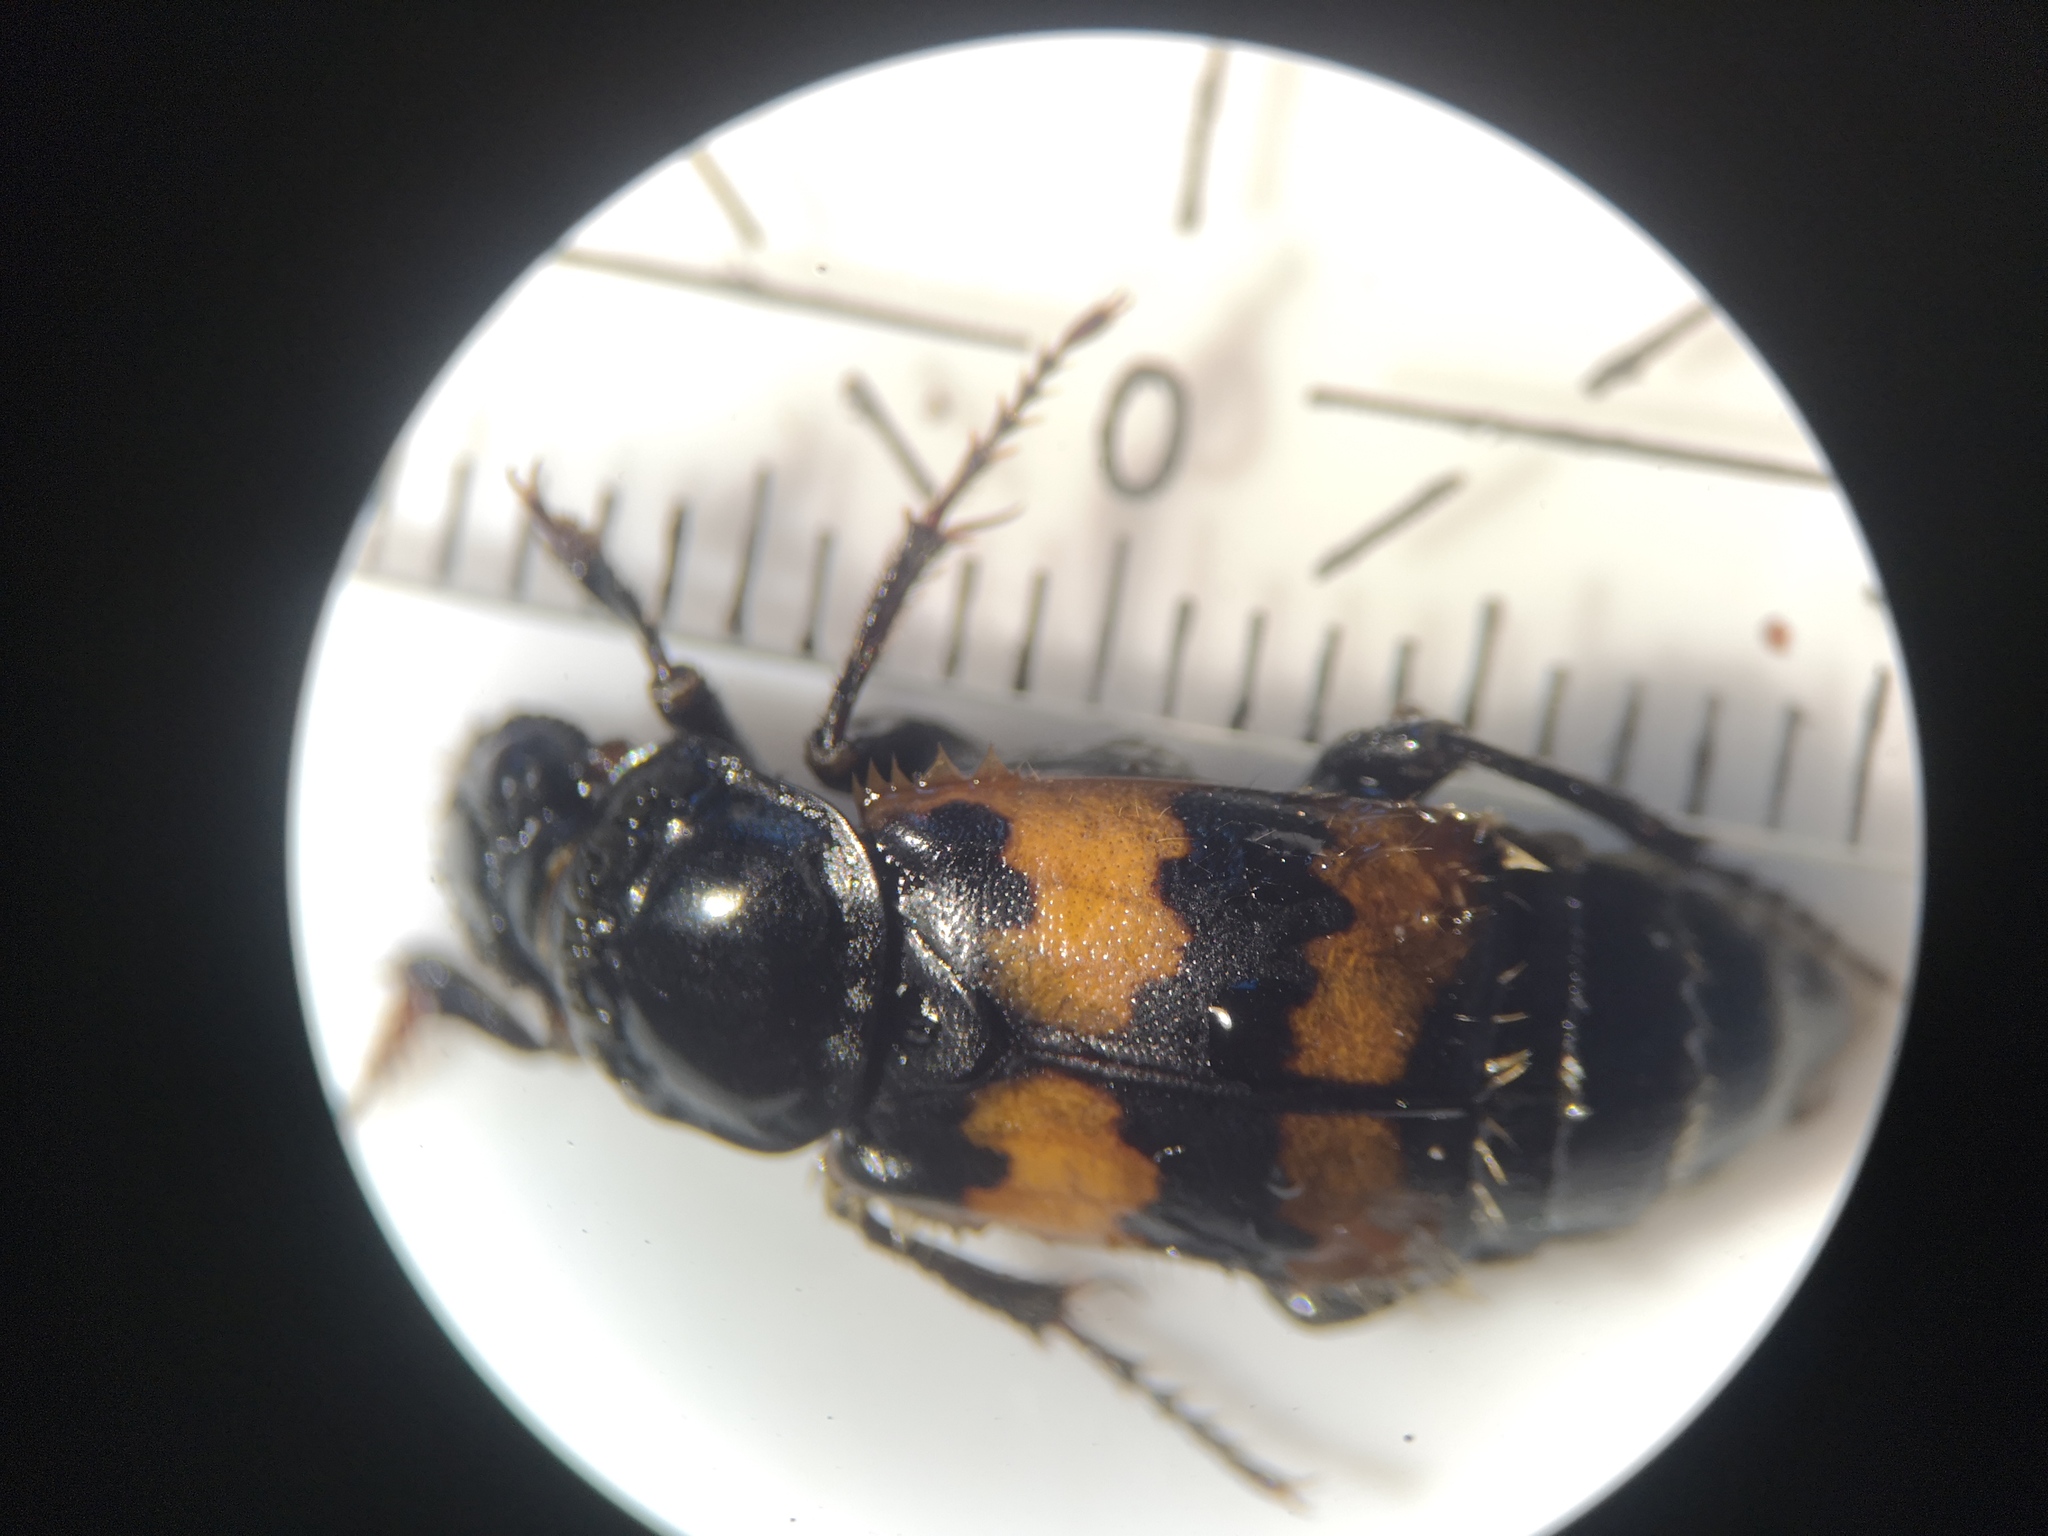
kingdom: Animalia
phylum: Arthropoda
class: Insecta
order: Coleoptera
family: Staphylinidae
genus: Nicrophorus
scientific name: Nicrophorus vespillo
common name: Common burying beetle
